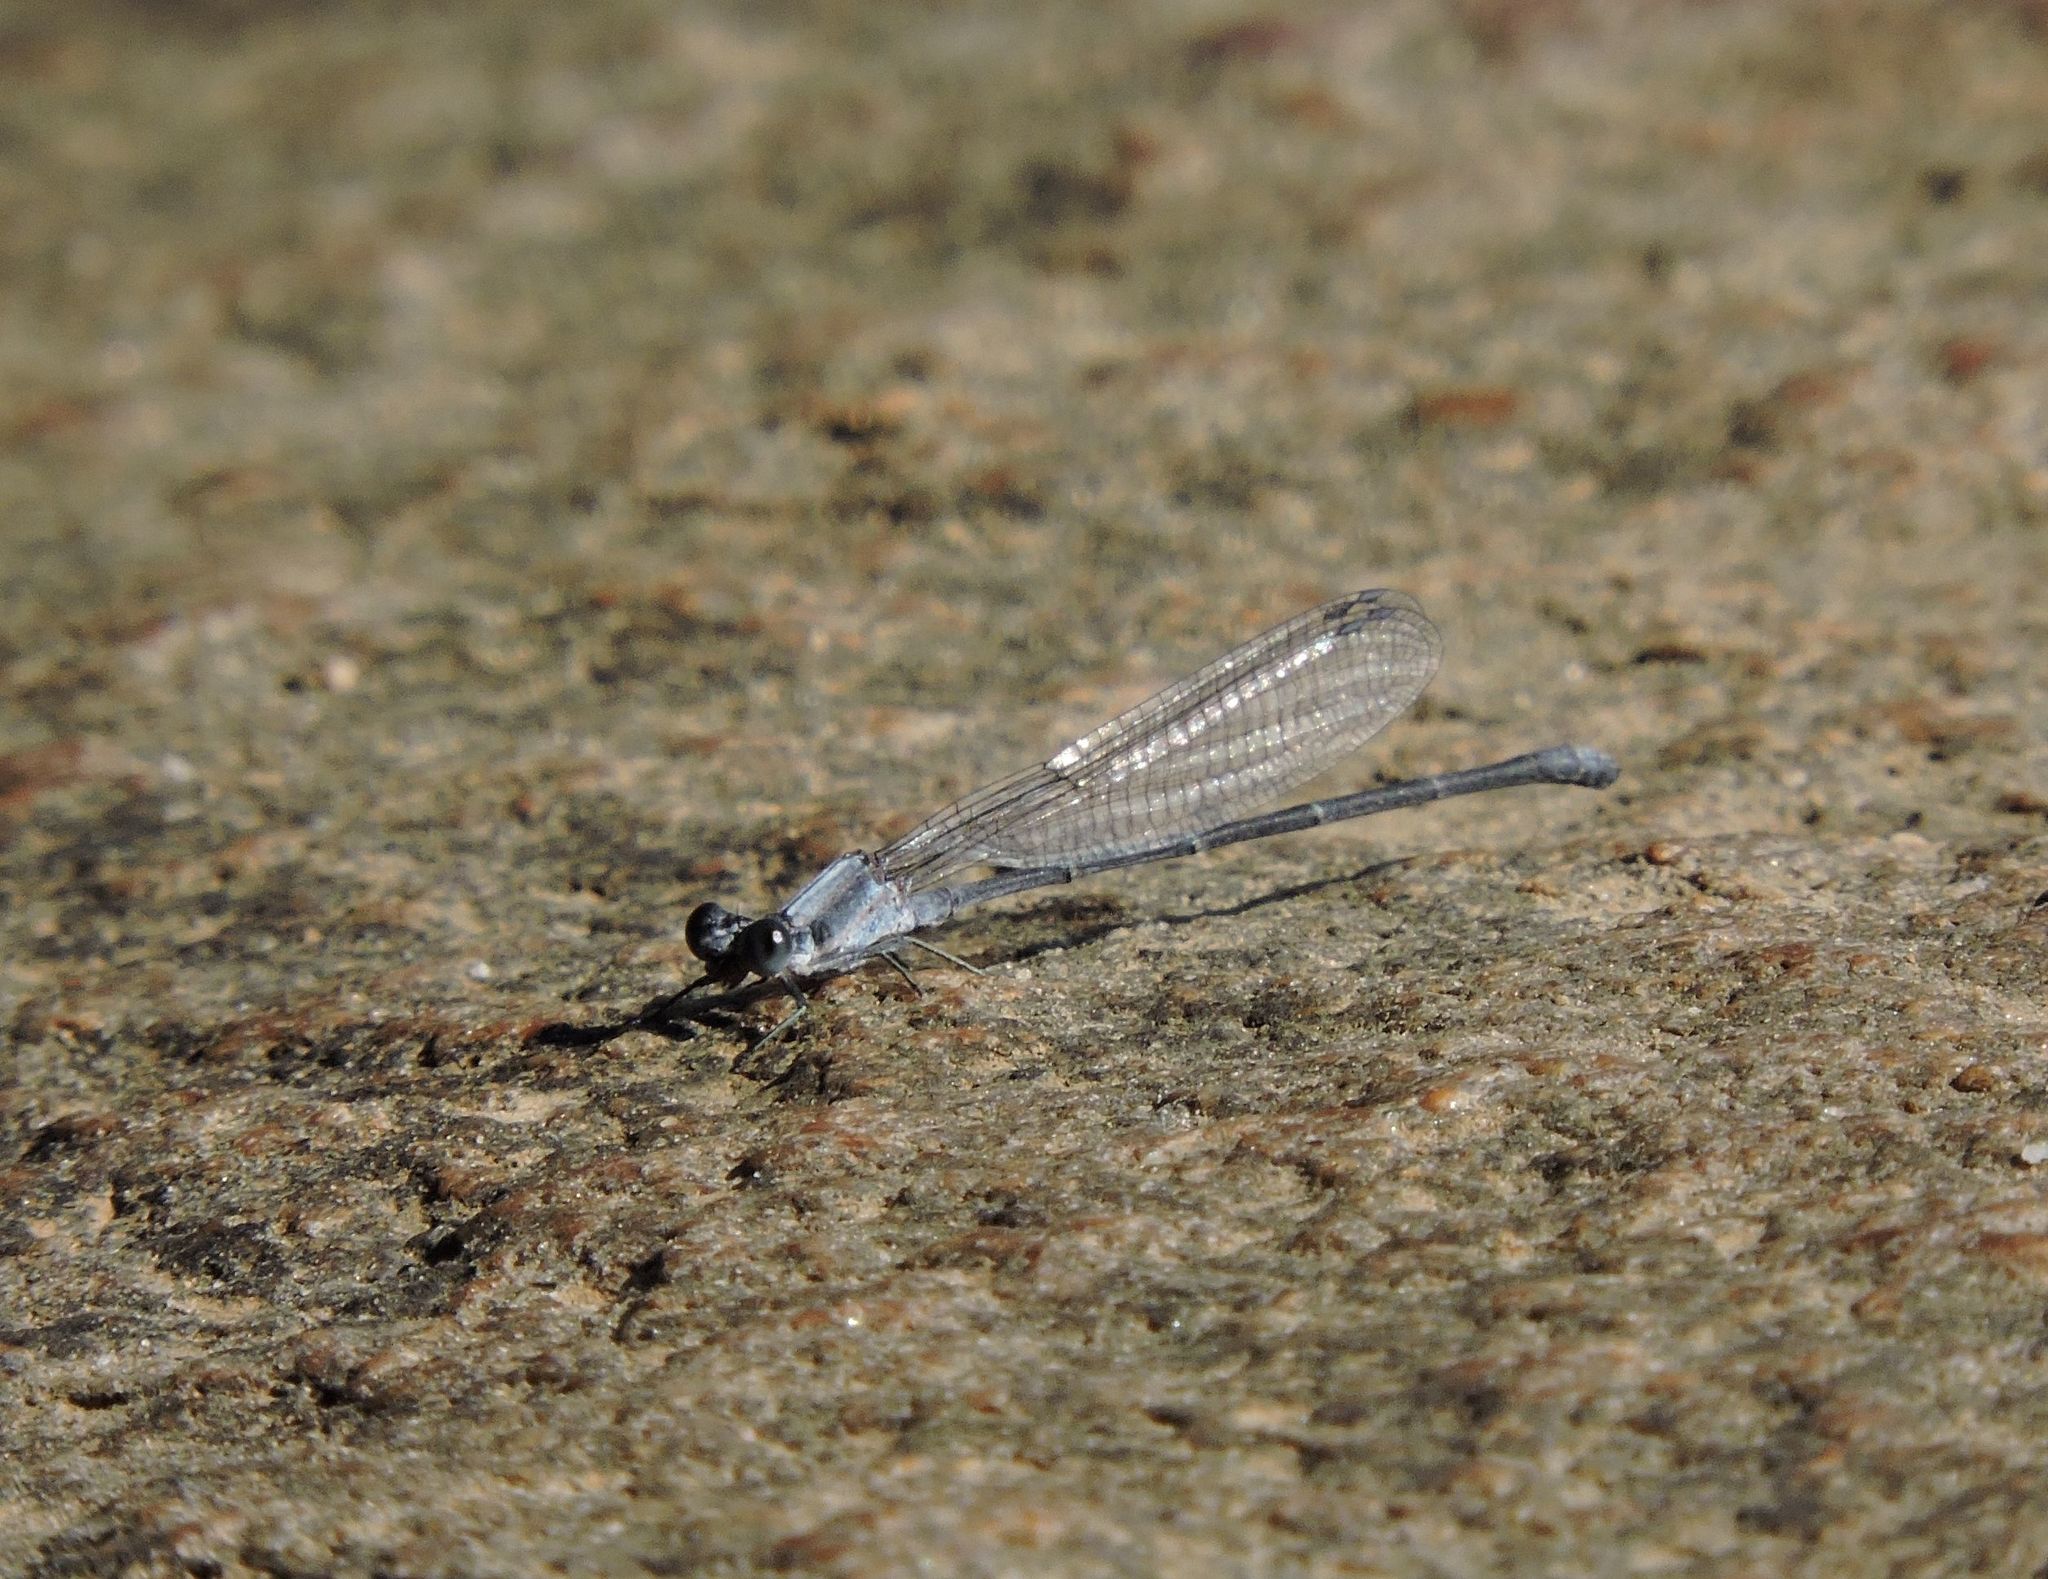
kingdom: Animalia
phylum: Arthropoda
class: Insecta
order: Odonata
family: Coenagrionidae
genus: Argia
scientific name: Argia moesta
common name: Powdered dancer
